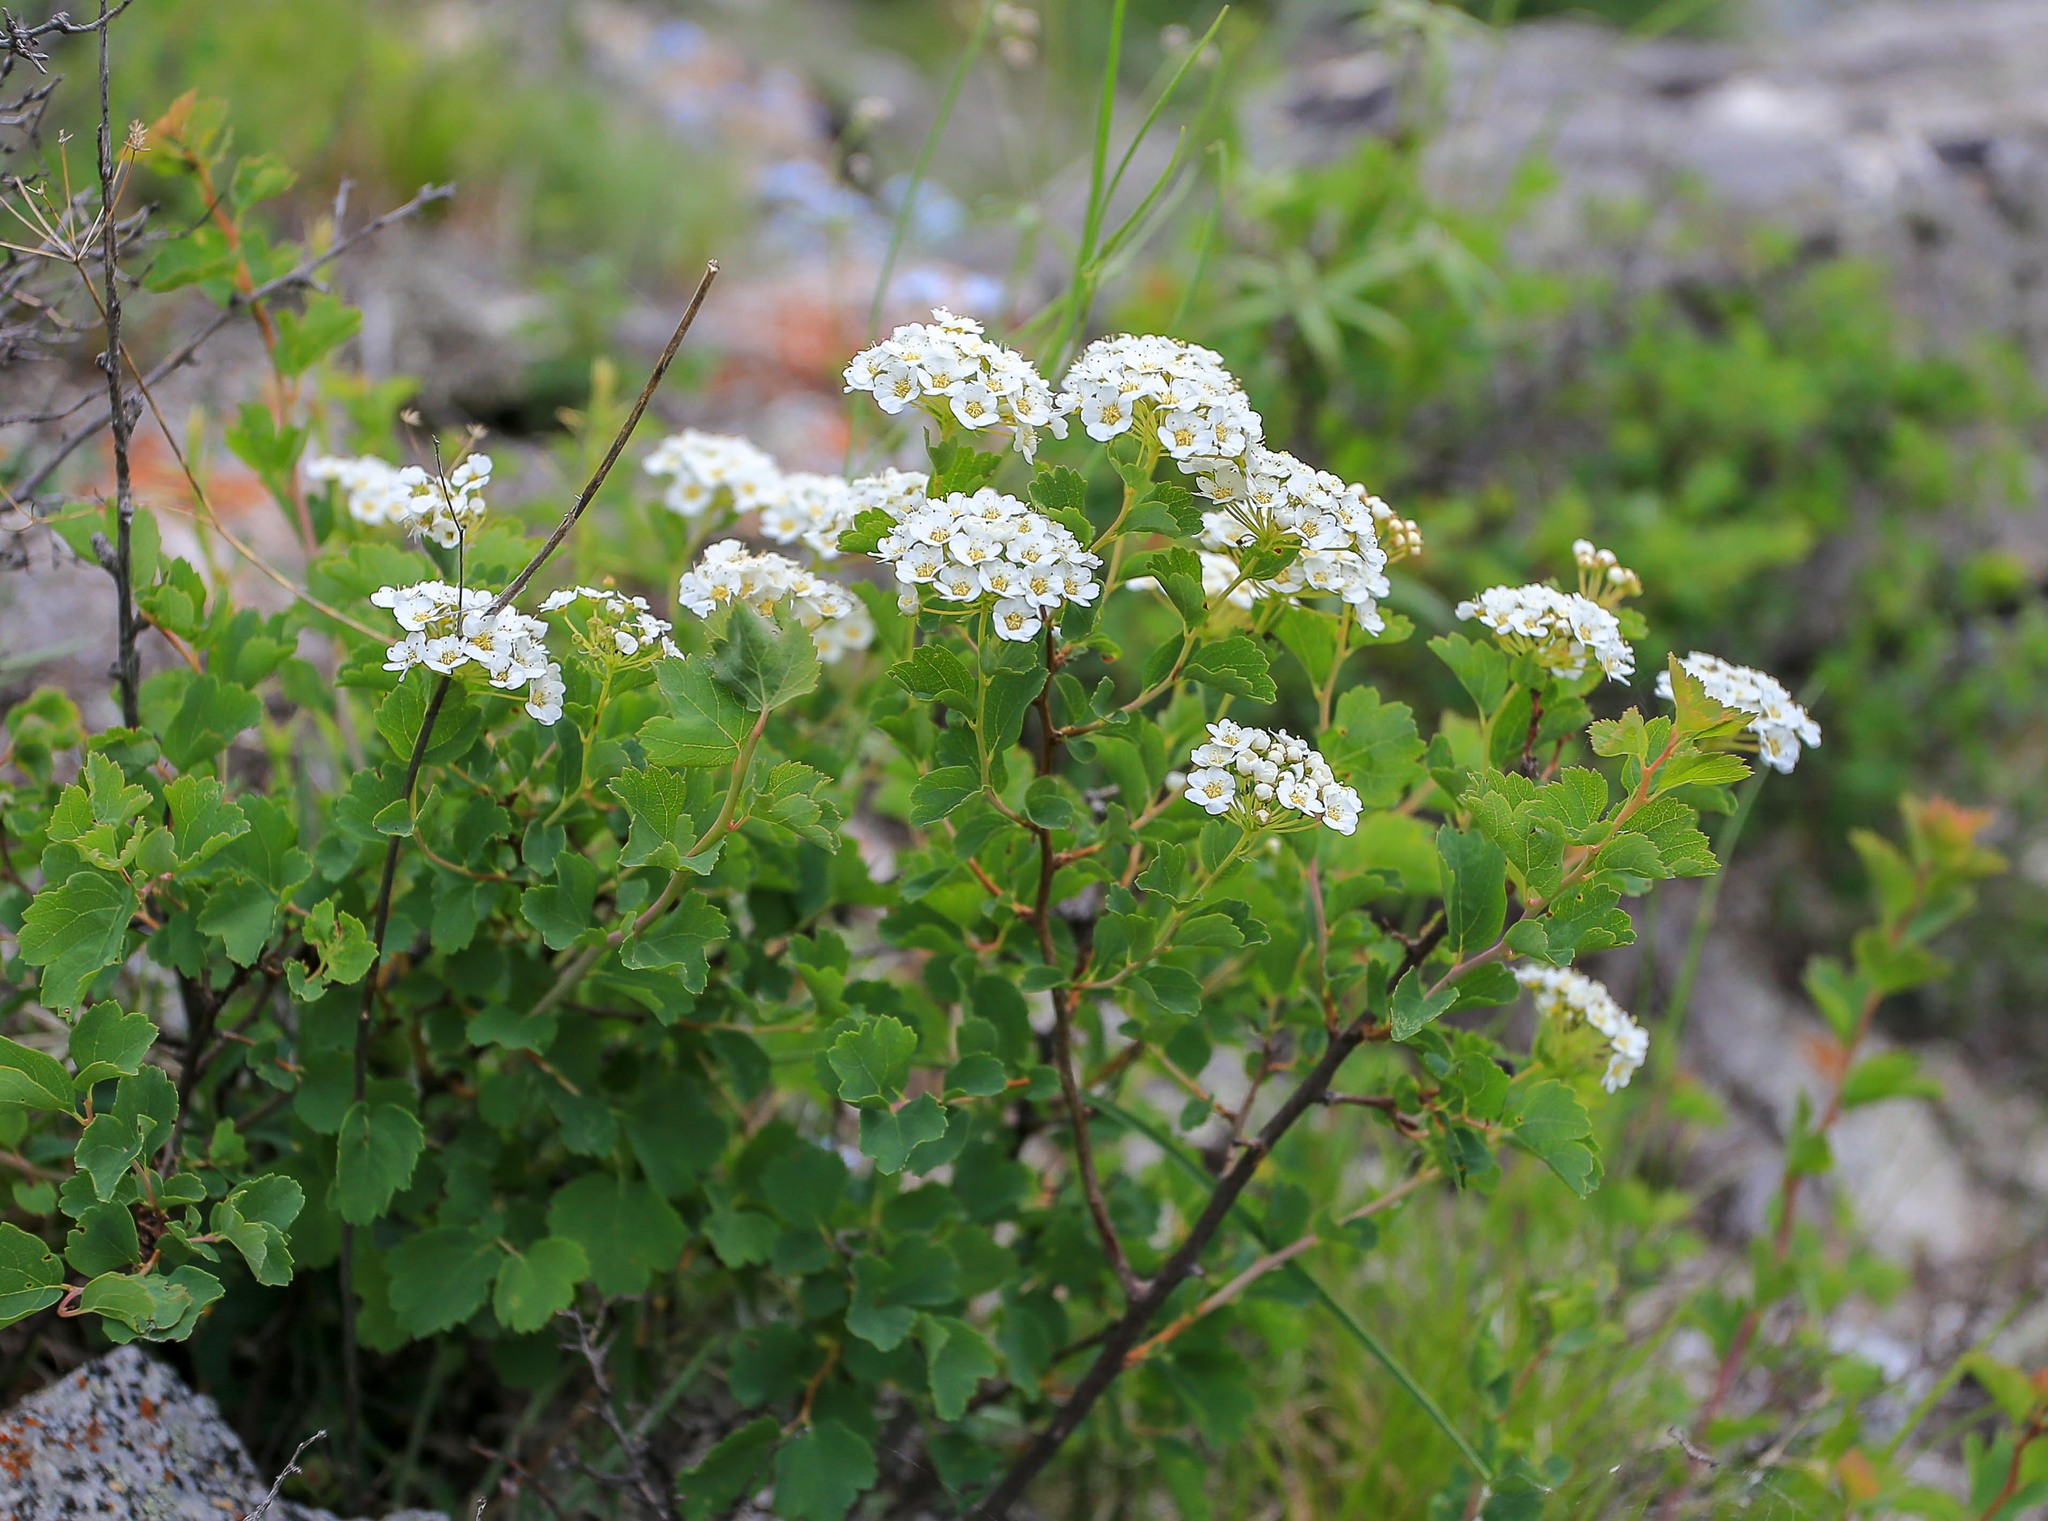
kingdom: Plantae
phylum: Tracheophyta
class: Magnoliopsida
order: Rosales
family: Rosaceae
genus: Spiraea
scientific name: Spiraea trilobata
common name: Asian meadowsweet
